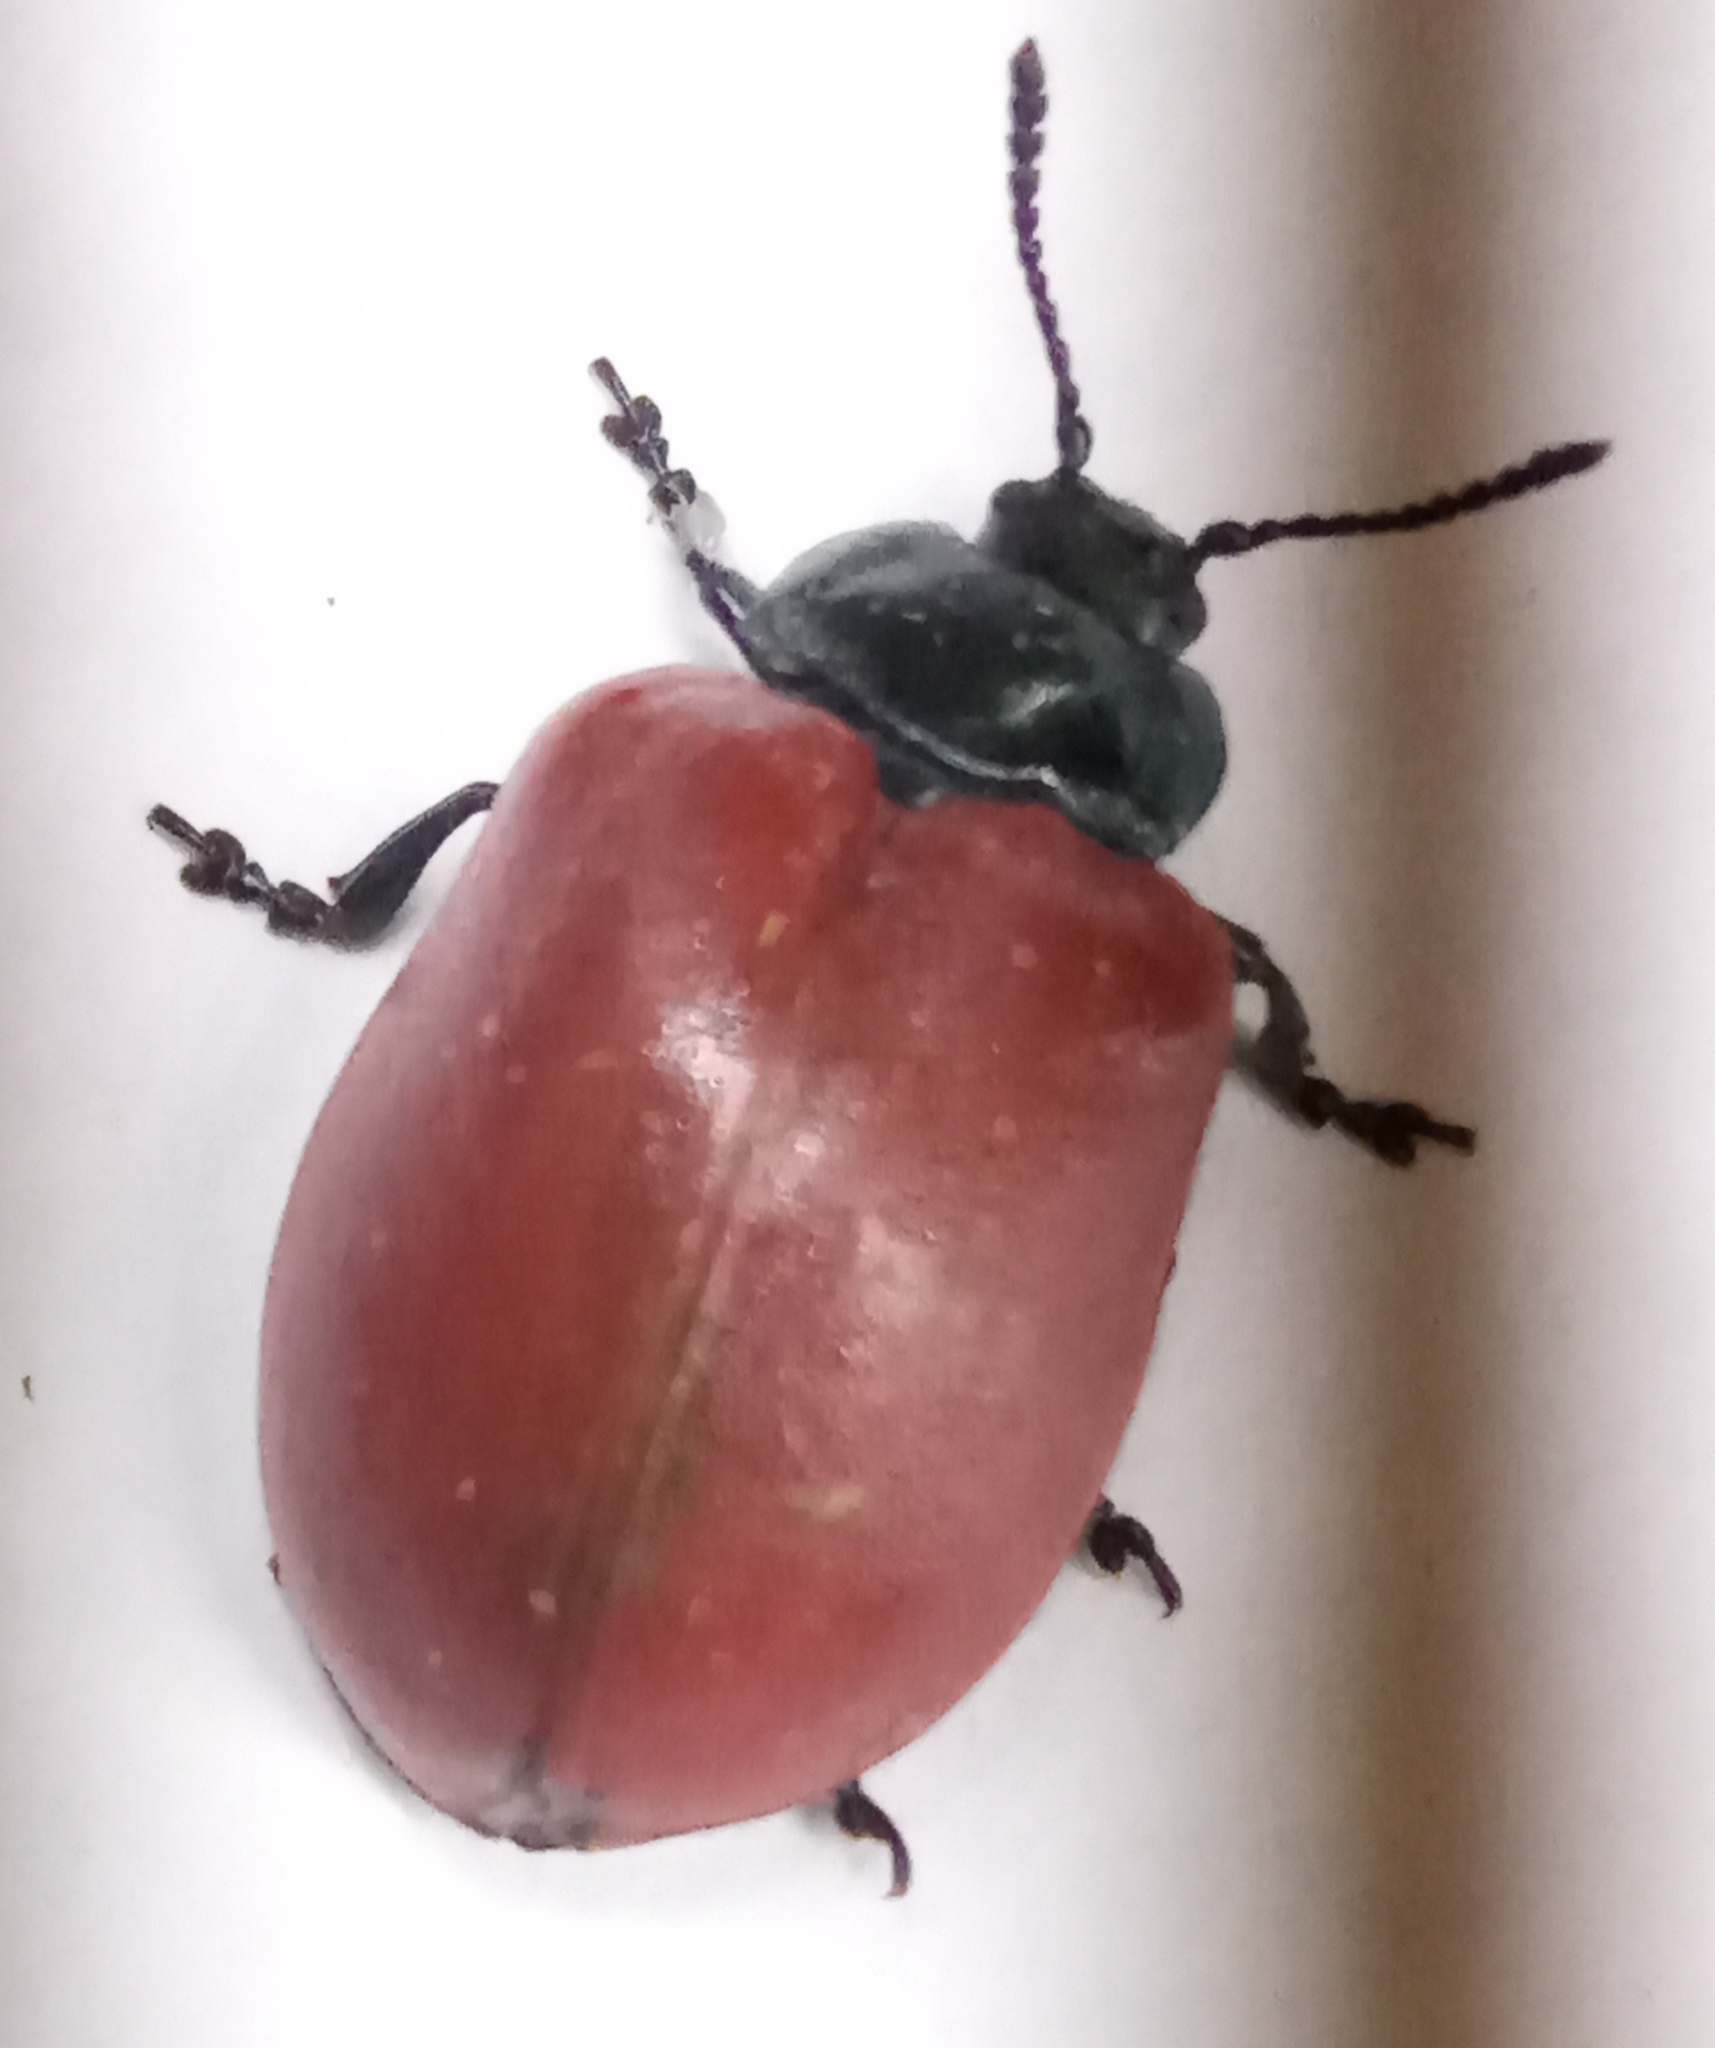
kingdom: Animalia
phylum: Arthropoda
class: Insecta
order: Coleoptera
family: Chrysomelidae
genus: Chrysomela
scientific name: Chrysomela populi
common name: Red poplar leaf beetle
